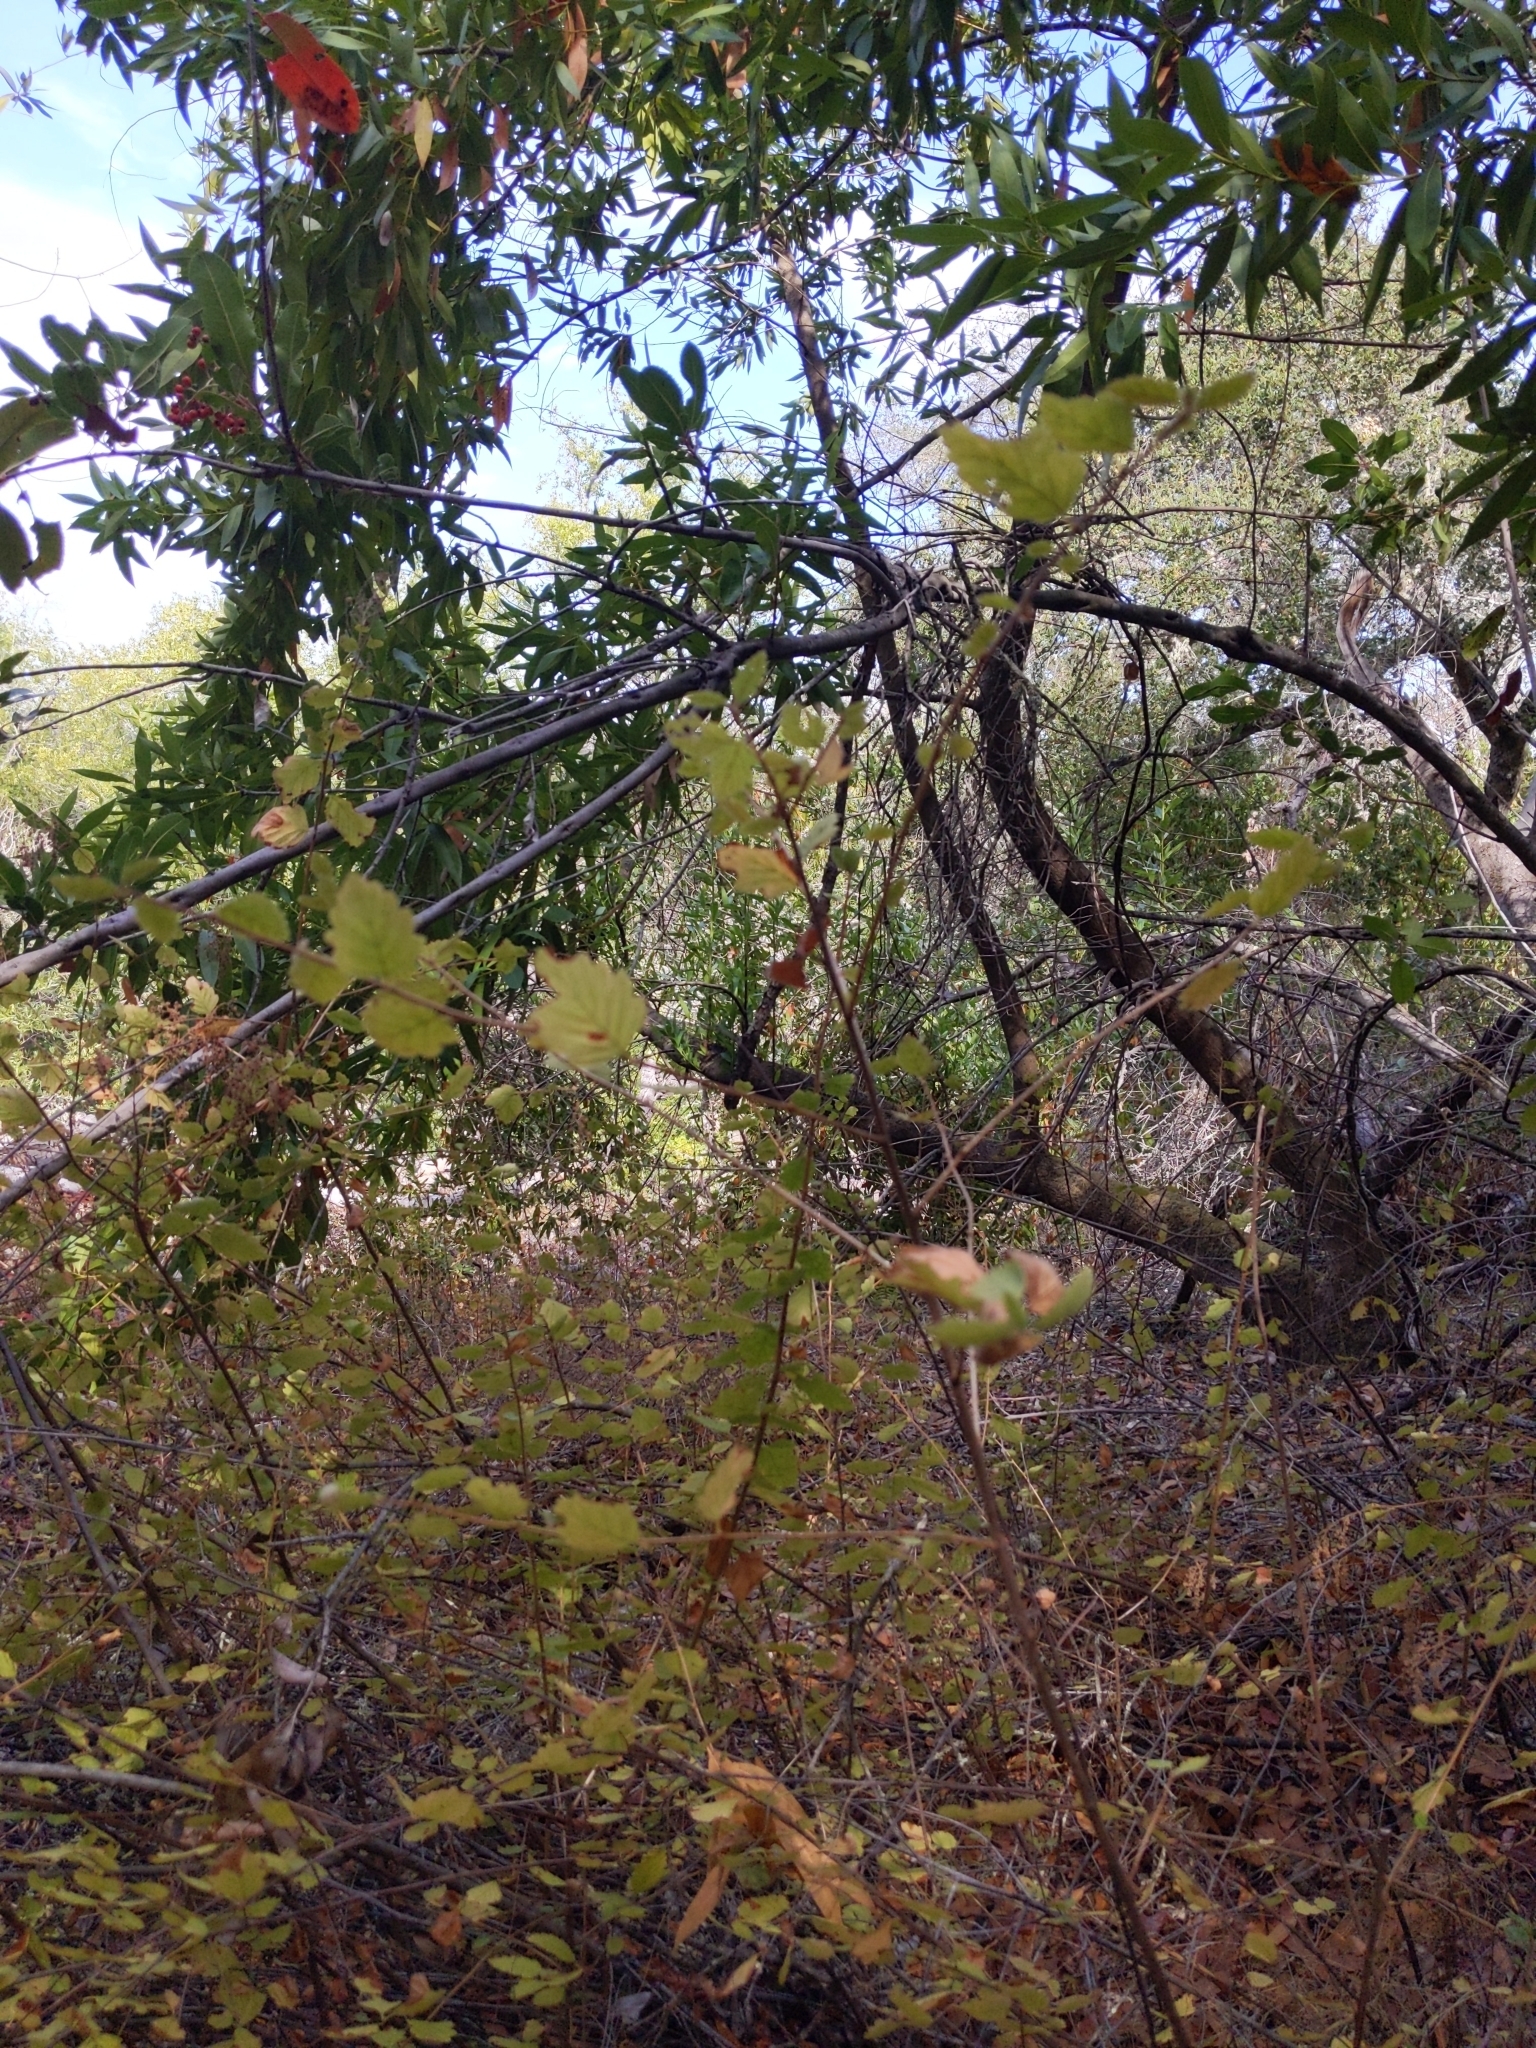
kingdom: Plantae
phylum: Tracheophyta
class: Magnoliopsida
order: Rosales
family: Rosaceae
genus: Holodiscus
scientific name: Holodiscus discolor
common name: Oceanspray
